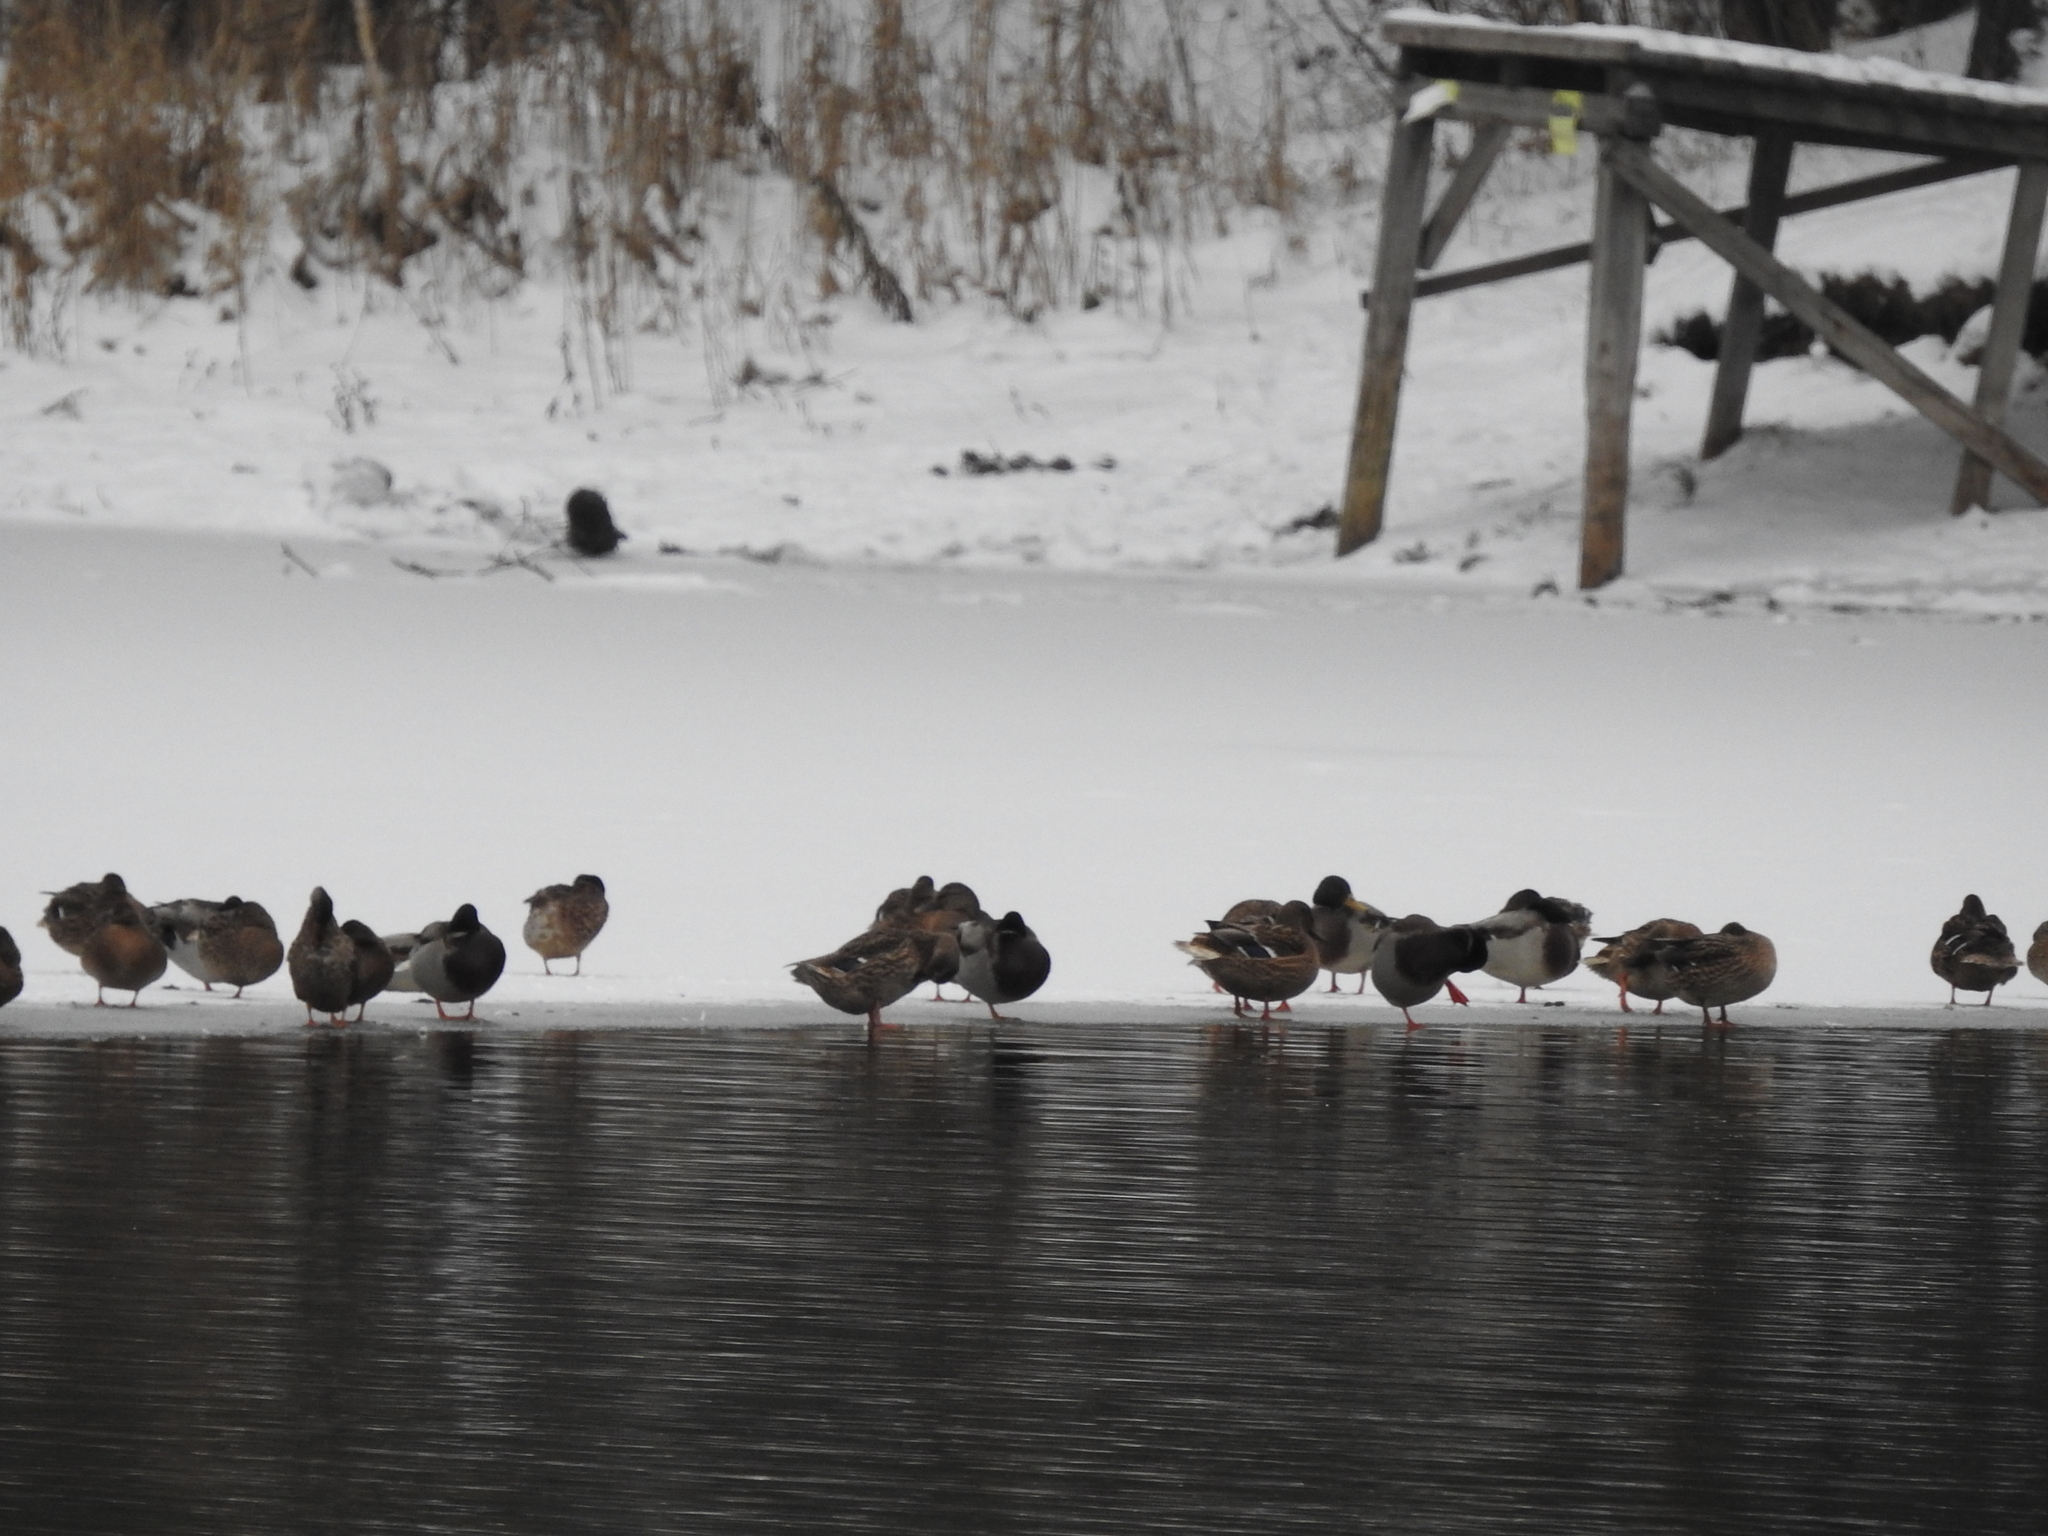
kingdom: Animalia
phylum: Chordata
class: Aves
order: Anseriformes
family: Anatidae
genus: Anas
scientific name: Anas platyrhynchos
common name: Mallard
